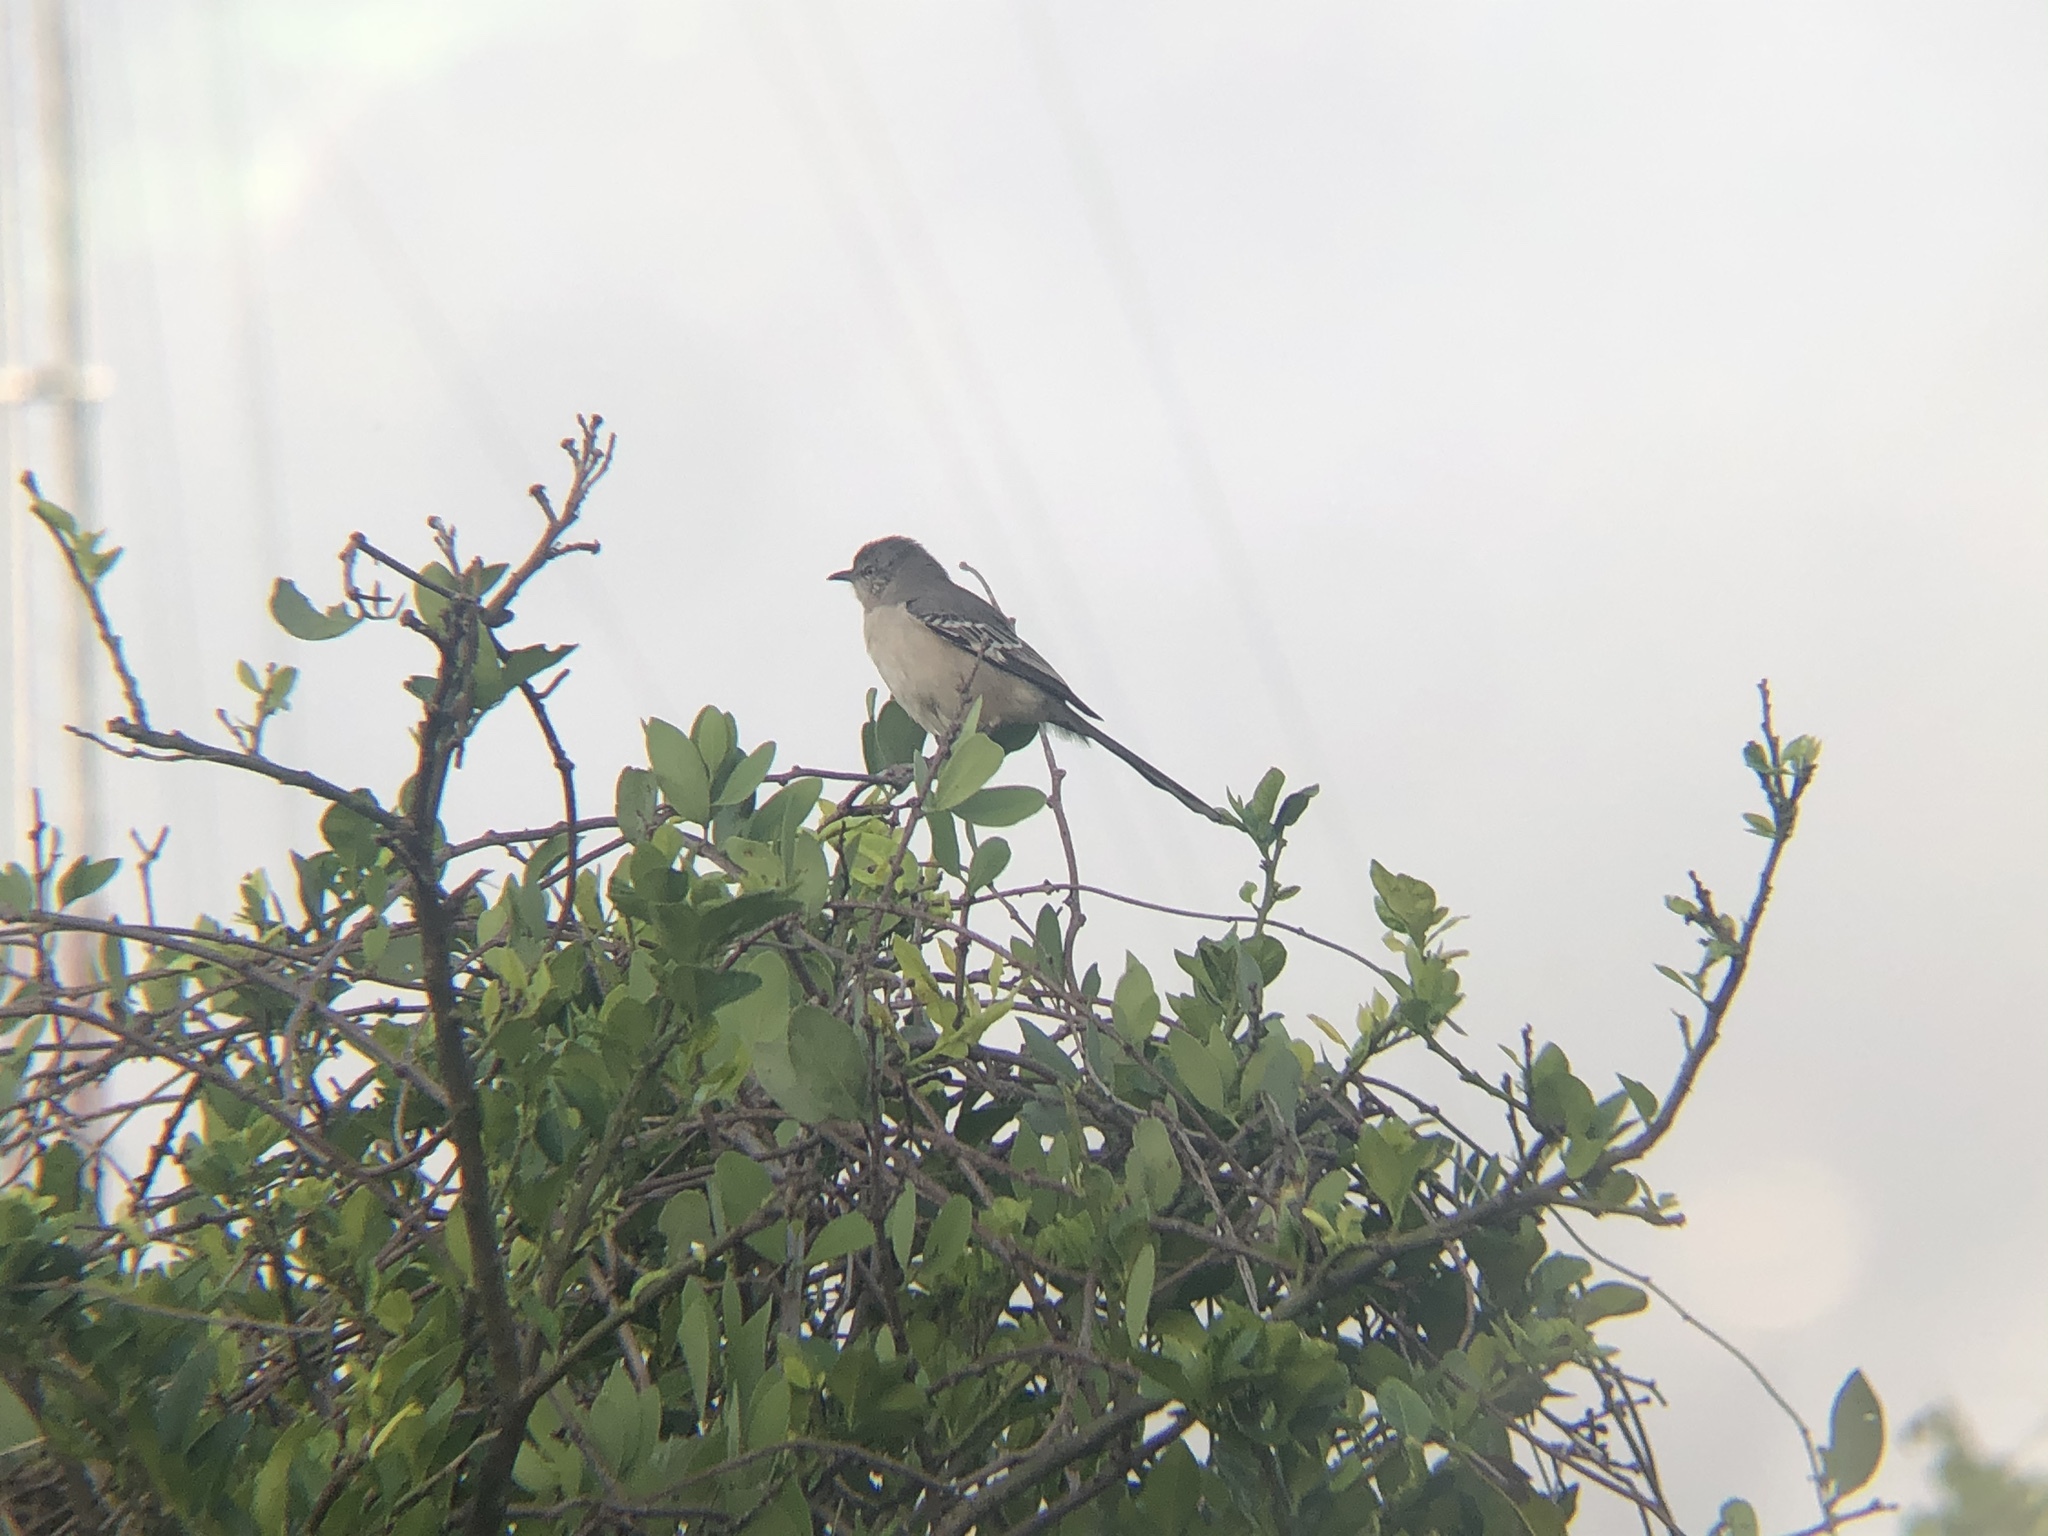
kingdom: Animalia
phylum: Chordata
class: Aves
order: Passeriformes
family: Mimidae
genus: Mimus
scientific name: Mimus polyglottos
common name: Northern mockingbird
